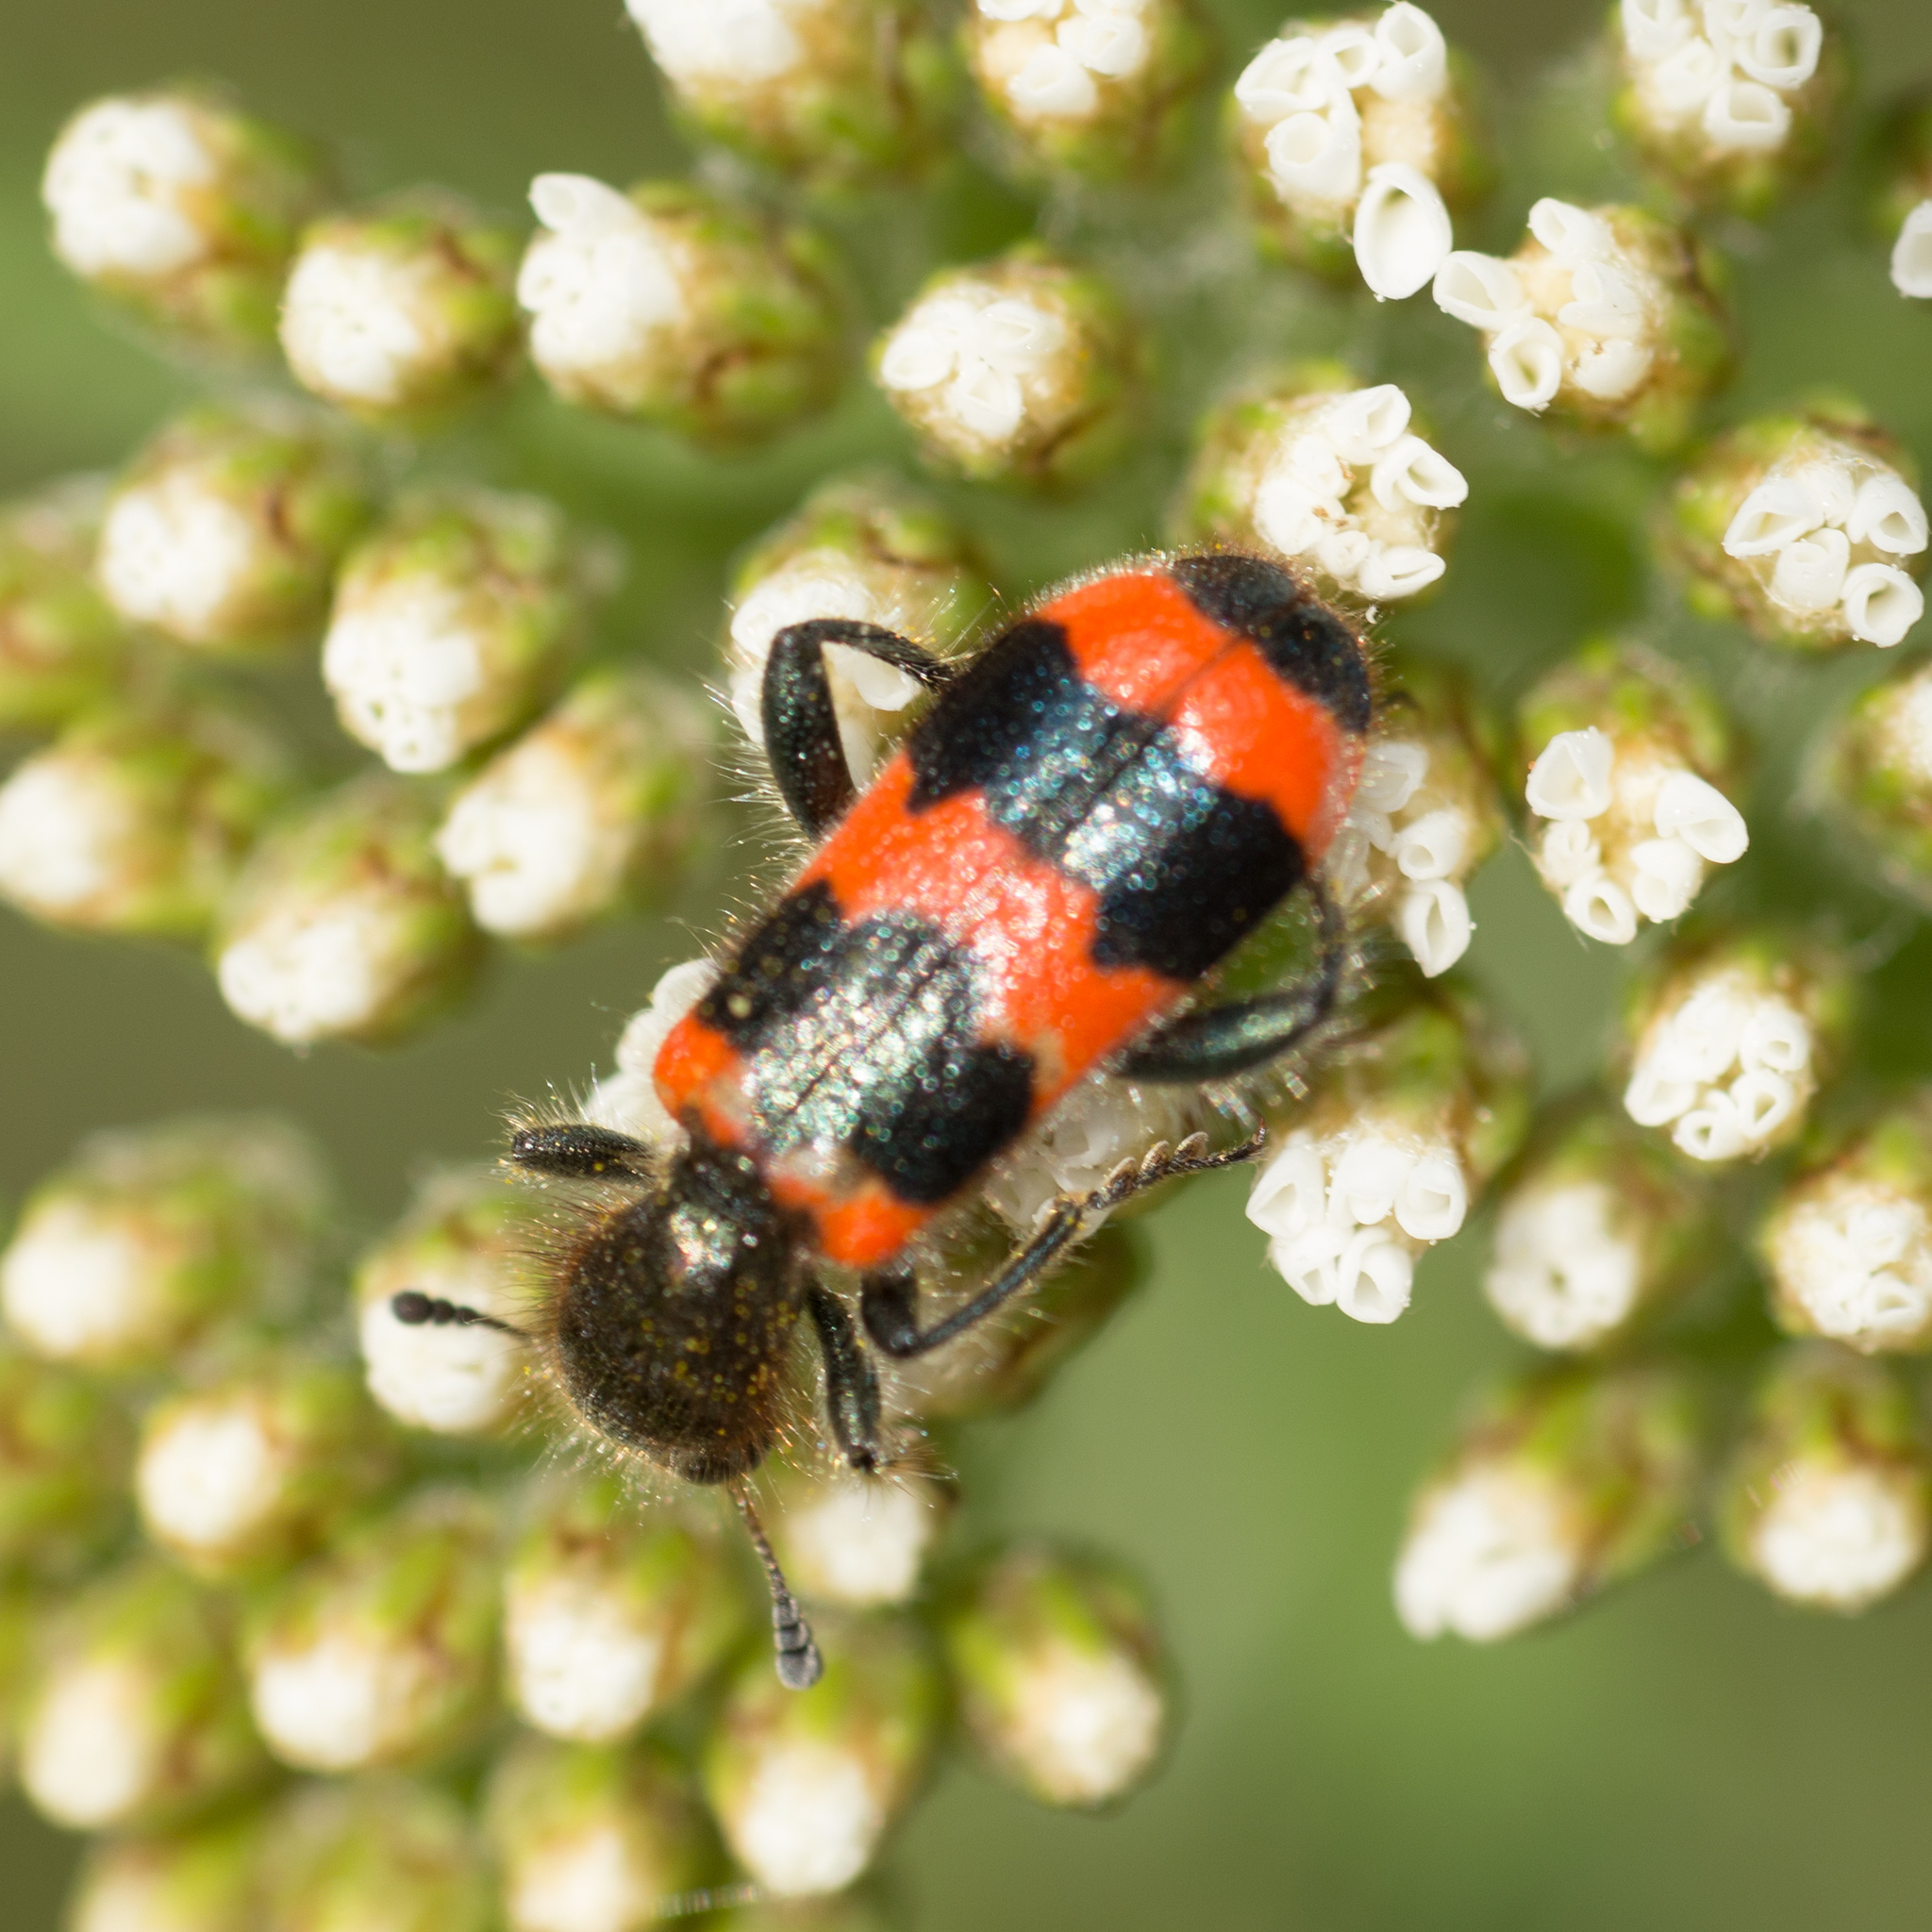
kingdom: Animalia
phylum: Arthropoda
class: Insecta
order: Coleoptera
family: Cleridae
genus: Trichodes
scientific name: Trichodes apiarius
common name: Bee-eating beetle
